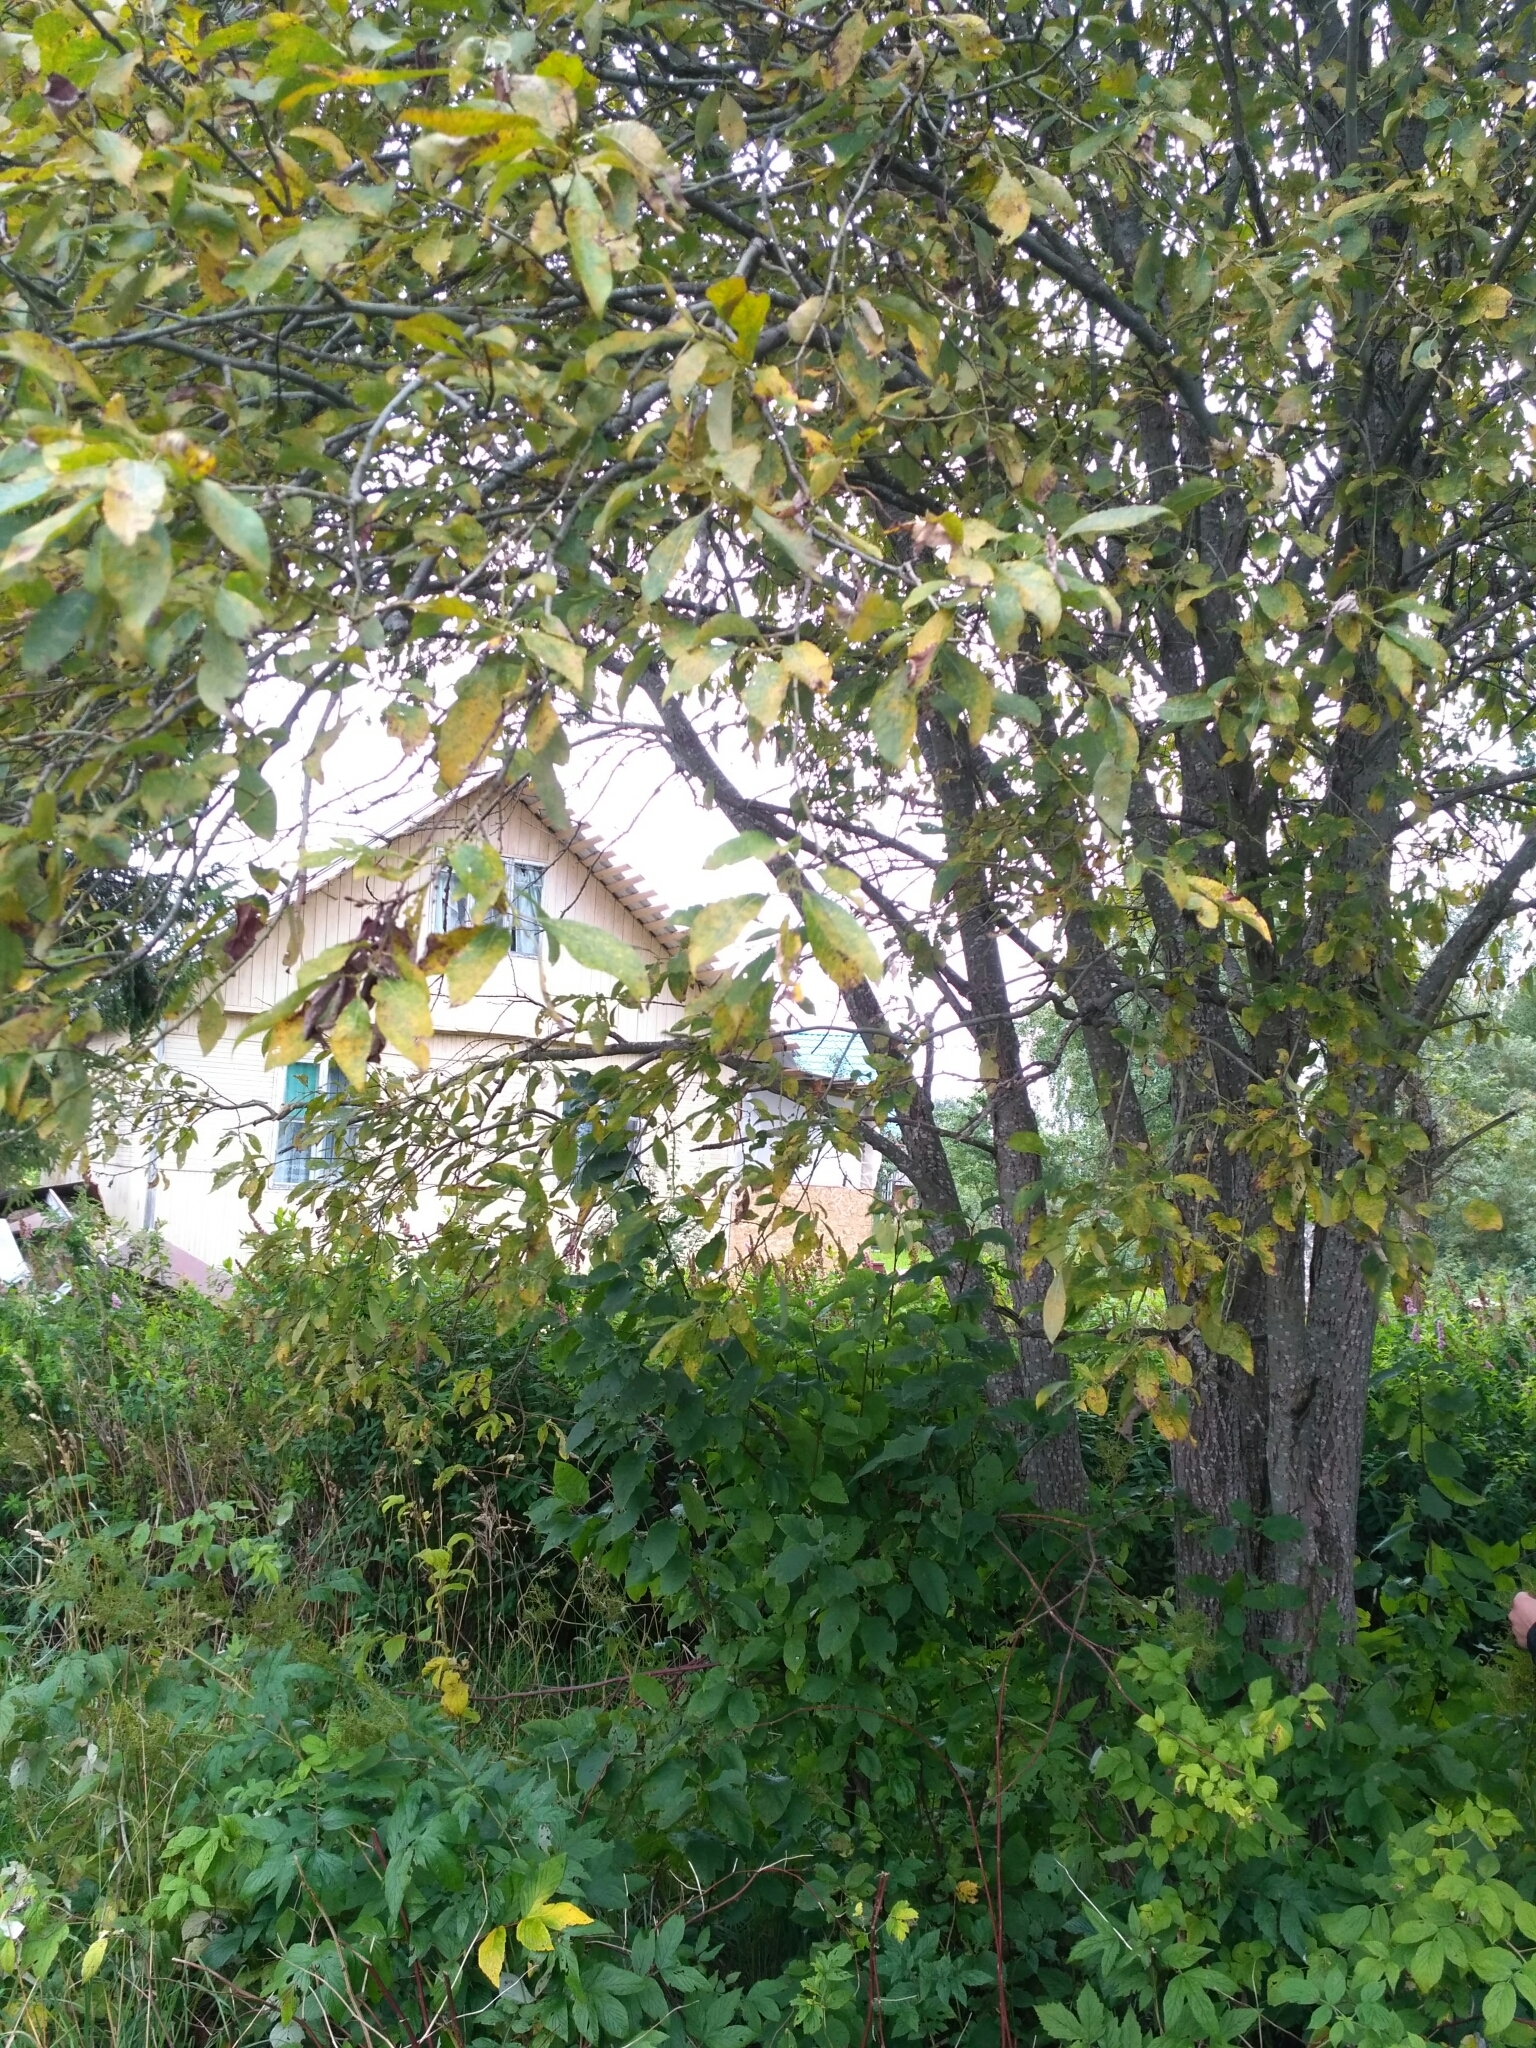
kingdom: Plantae
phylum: Tracheophyta
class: Magnoliopsida
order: Malpighiales
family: Salicaceae
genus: Salix
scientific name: Salix caprea
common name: Goat willow
